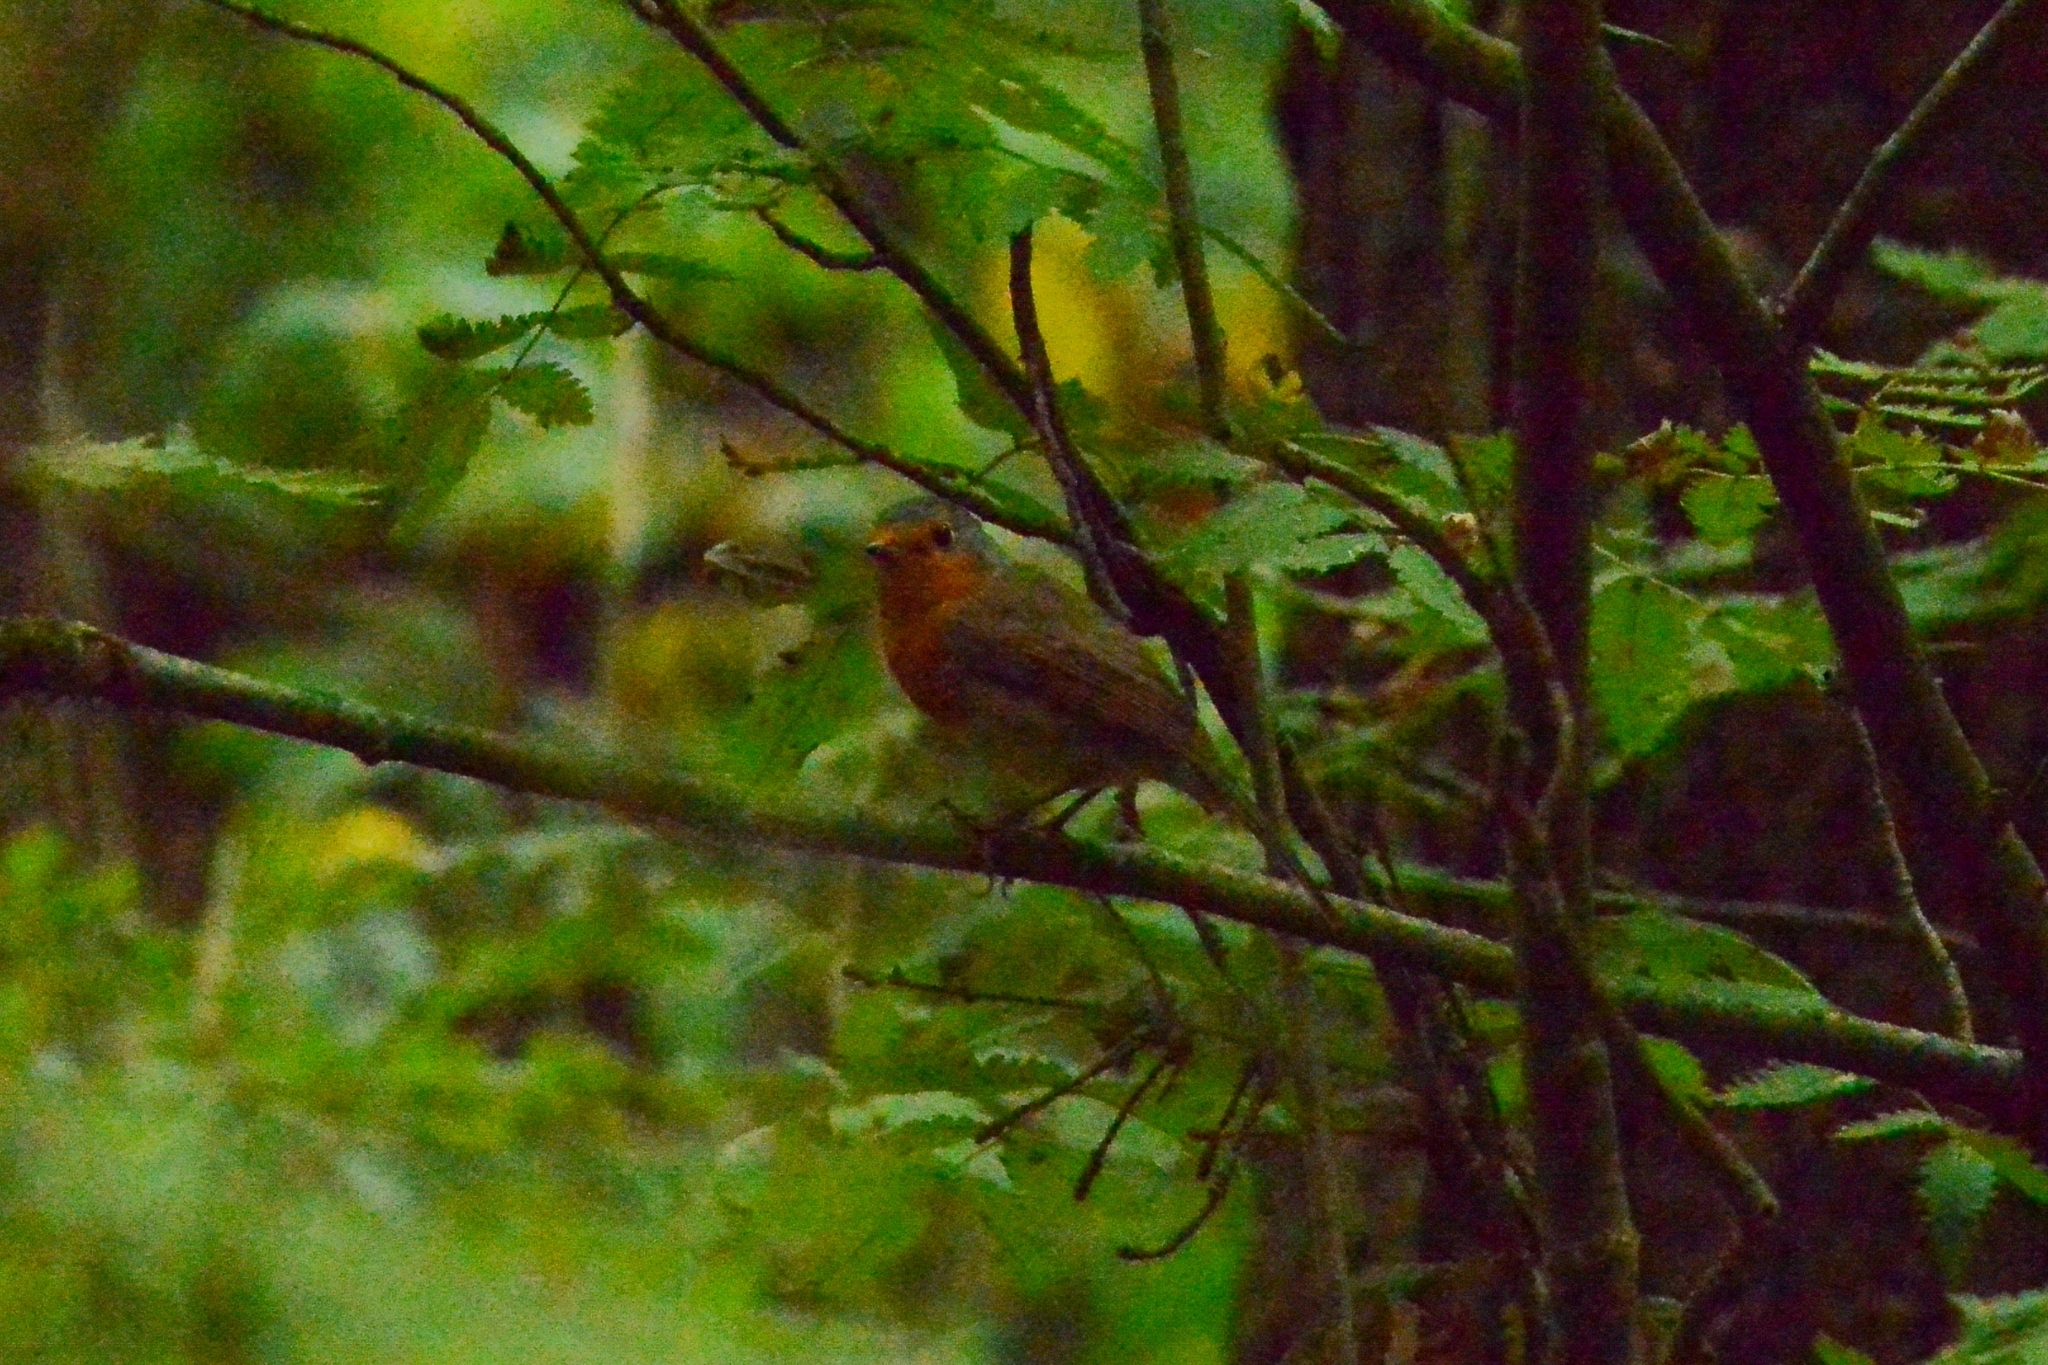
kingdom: Animalia
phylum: Chordata
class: Aves
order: Passeriformes
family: Muscicapidae
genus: Erithacus
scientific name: Erithacus rubecula
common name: European robin
